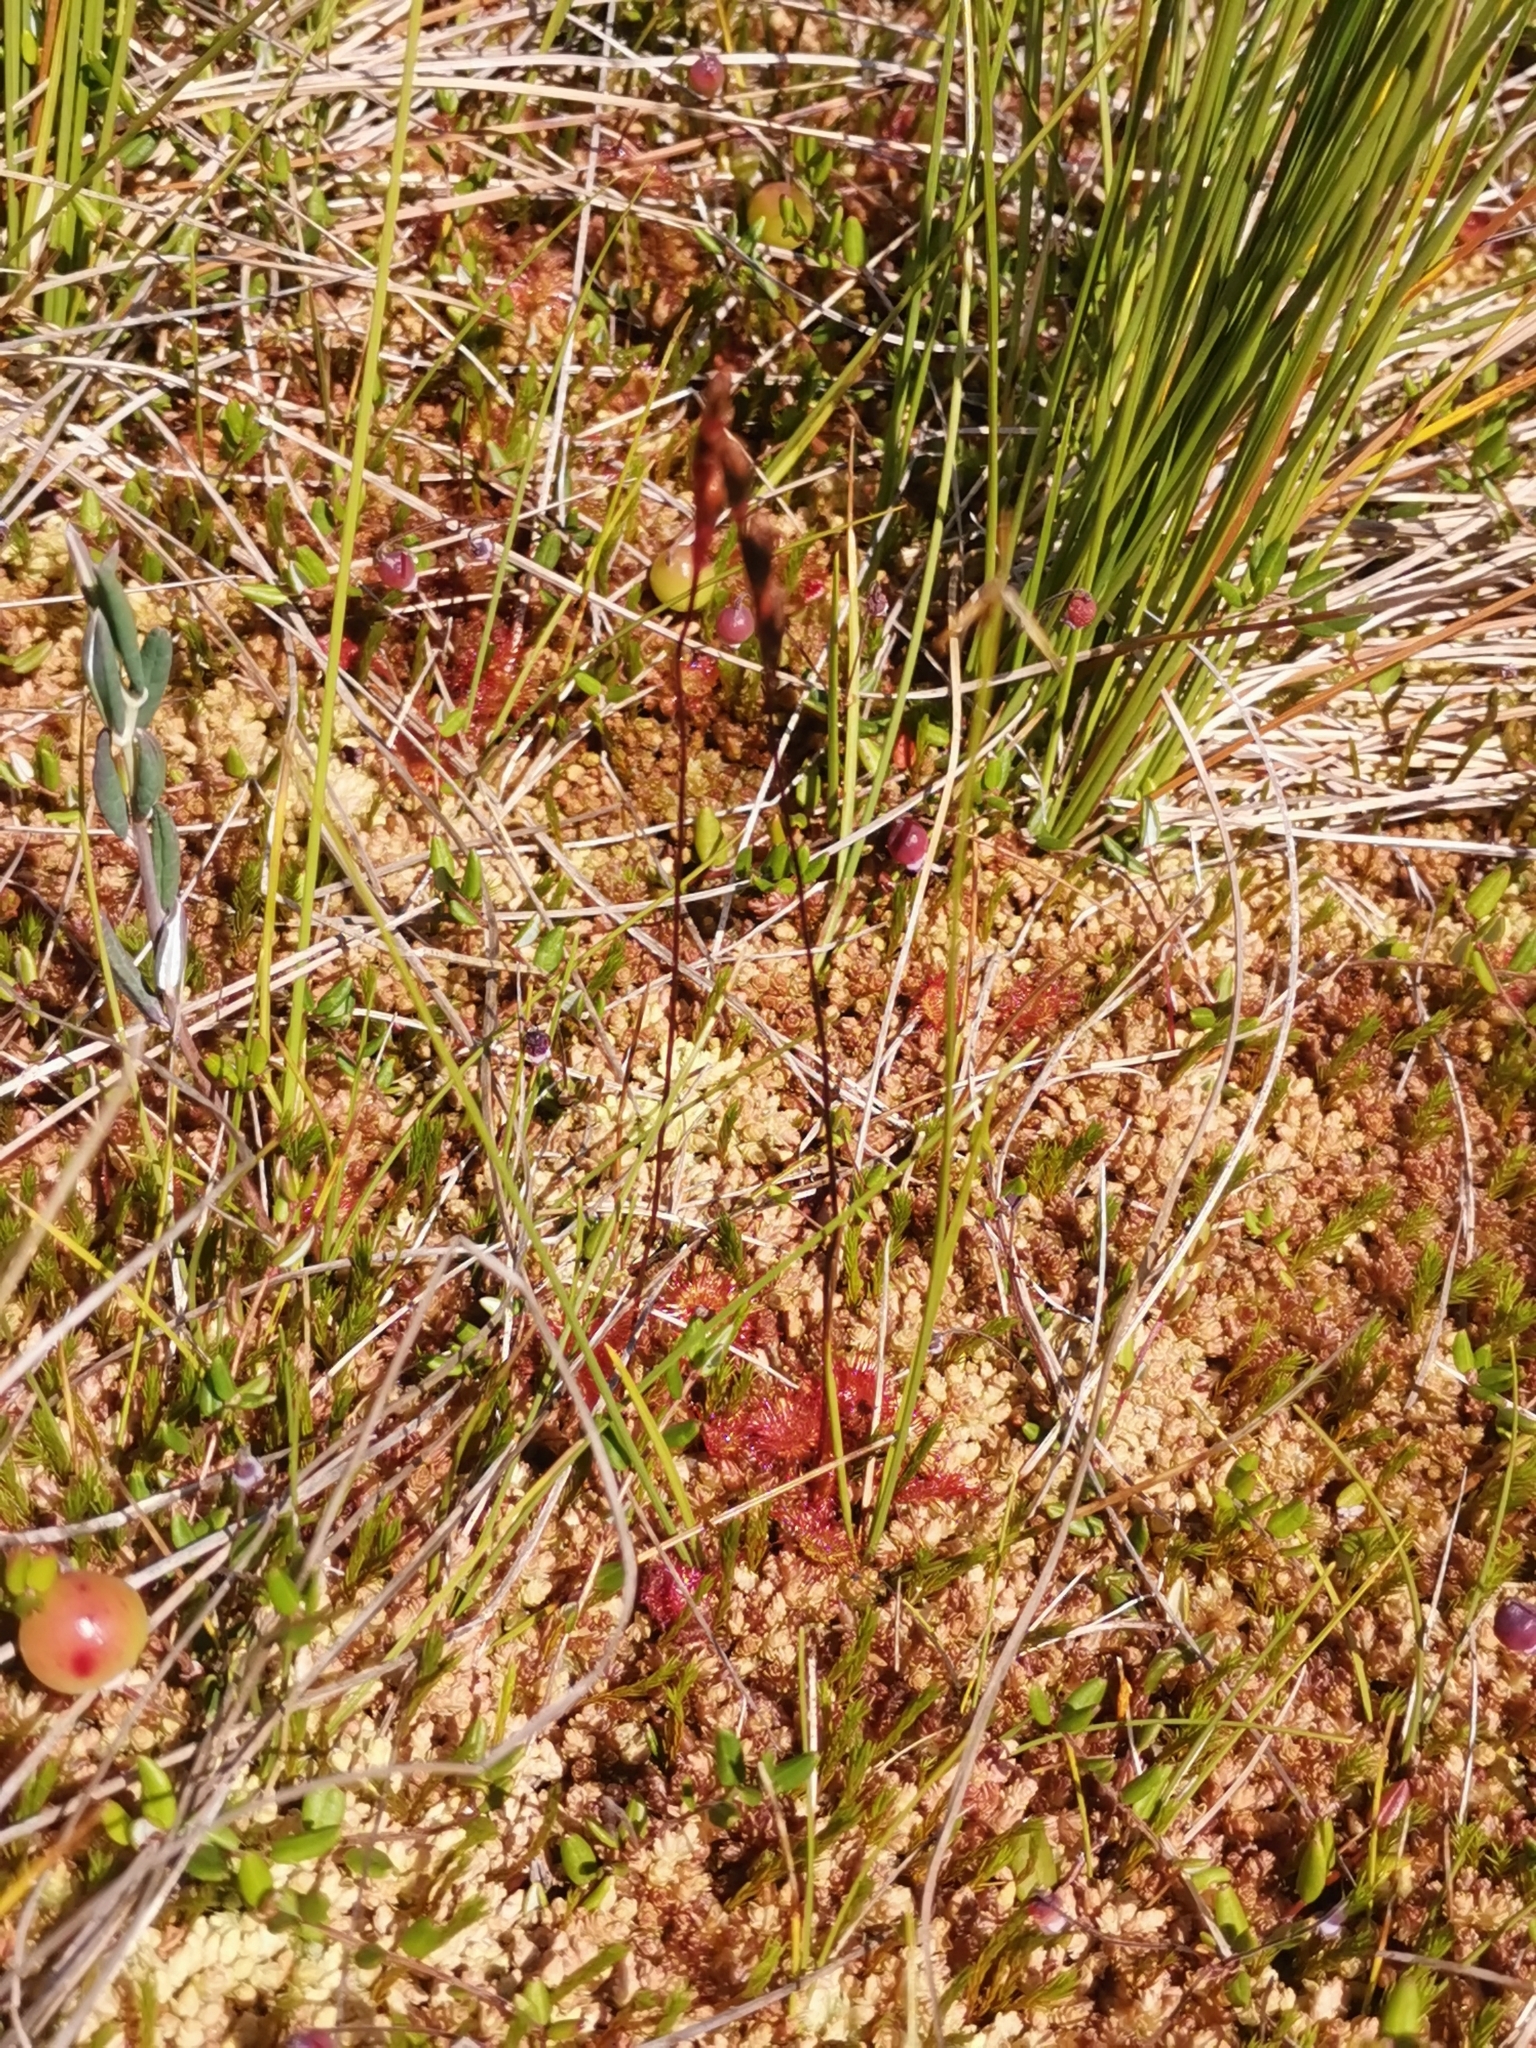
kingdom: Plantae
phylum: Tracheophyta
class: Magnoliopsida
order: Caryophyllales
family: Droseraceae
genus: Drosera
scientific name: Drosera rotundifolia
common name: Round-leaved sundew
